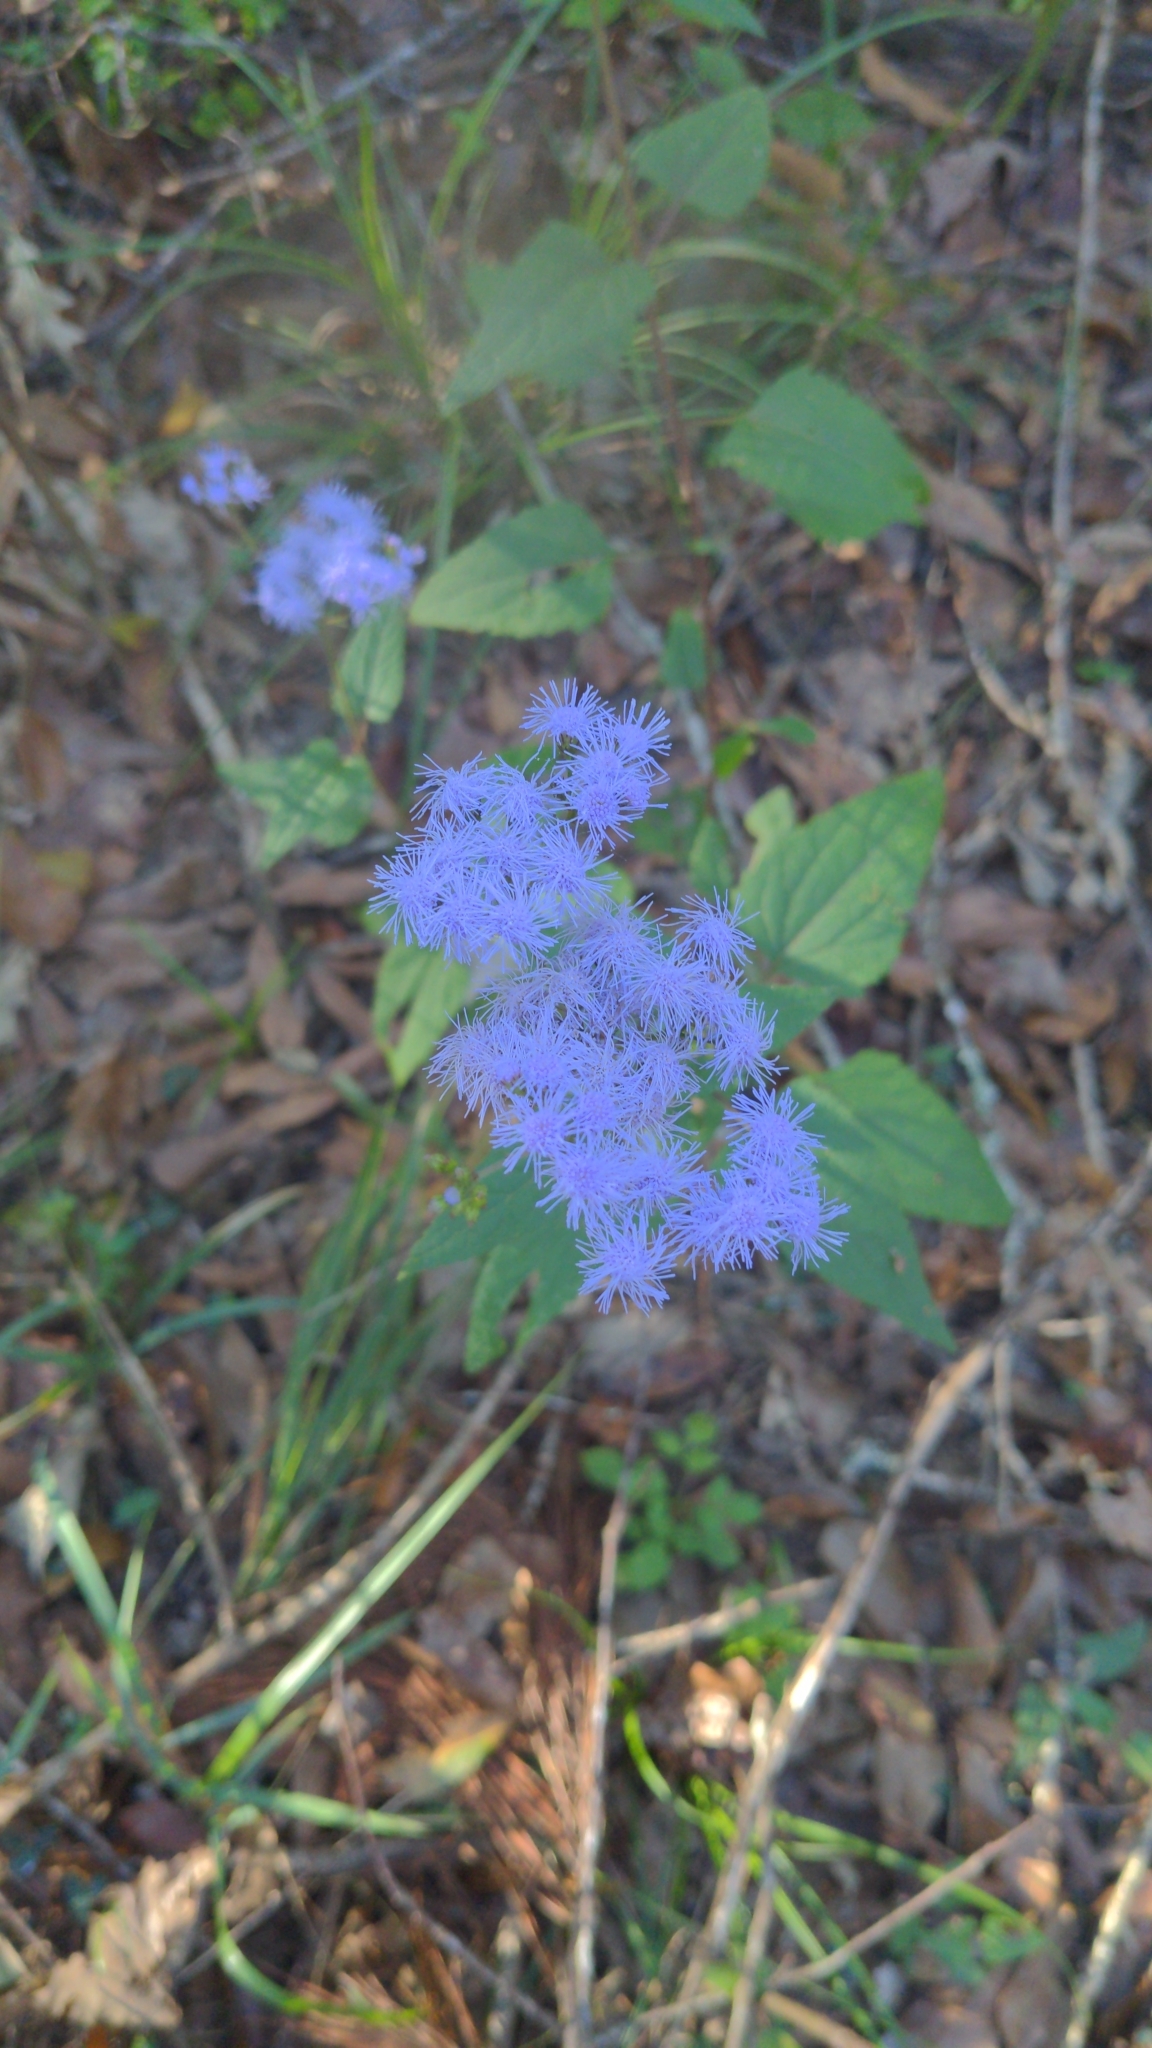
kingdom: Plantae
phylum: Tracheophyta
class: Magnoliopsida
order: Asterales
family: Asteraceae
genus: Conoclinium
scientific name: Conoclinium coelestinum
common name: Blue mistflower
